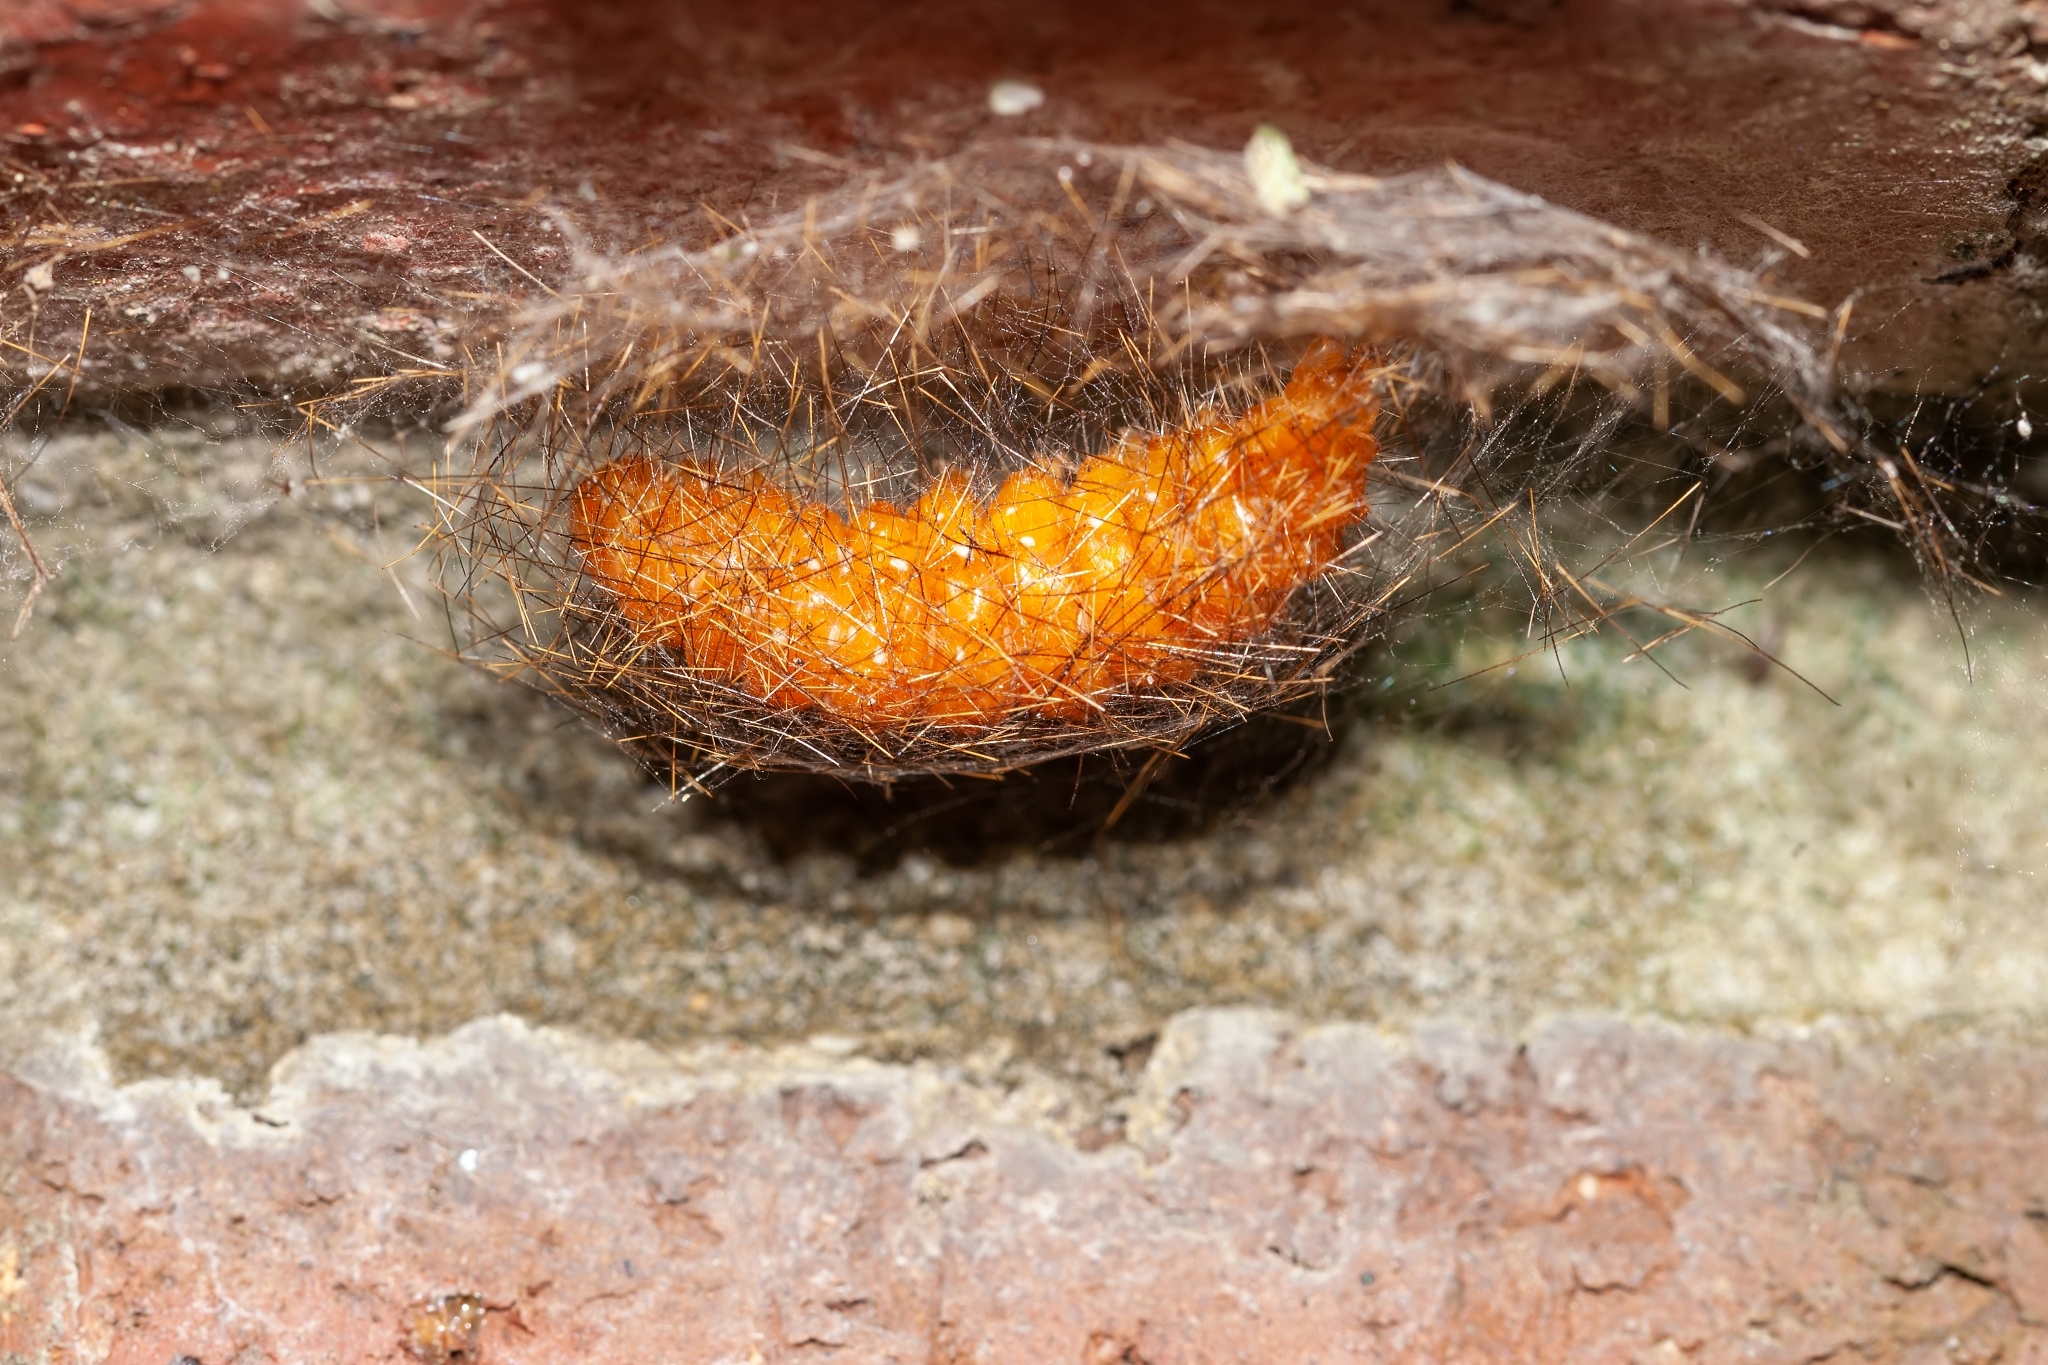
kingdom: Animalia
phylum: Arthropoda
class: Insecta
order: Lepidoptera
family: Erebidae
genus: Empyreuma
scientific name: Empyreuma pugione
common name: Spotted oleander caterpillar moth
